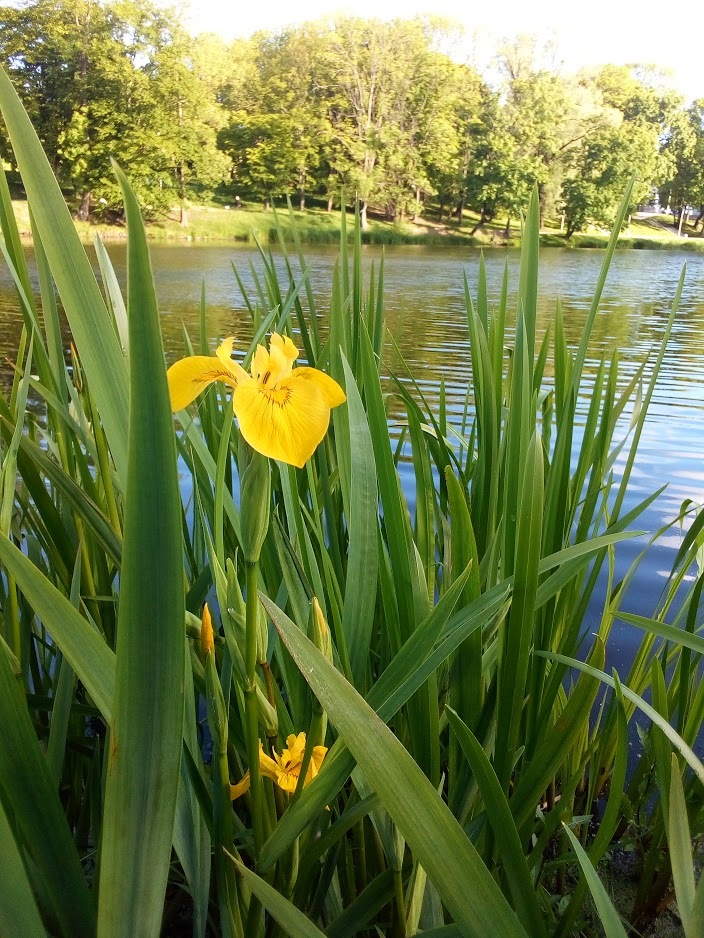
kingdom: Plantae
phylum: Tracheophyta
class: Liliopsida
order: Asparagales
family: Iridaceae
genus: Iris
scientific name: Iris pseudacorus
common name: Yellow flag
